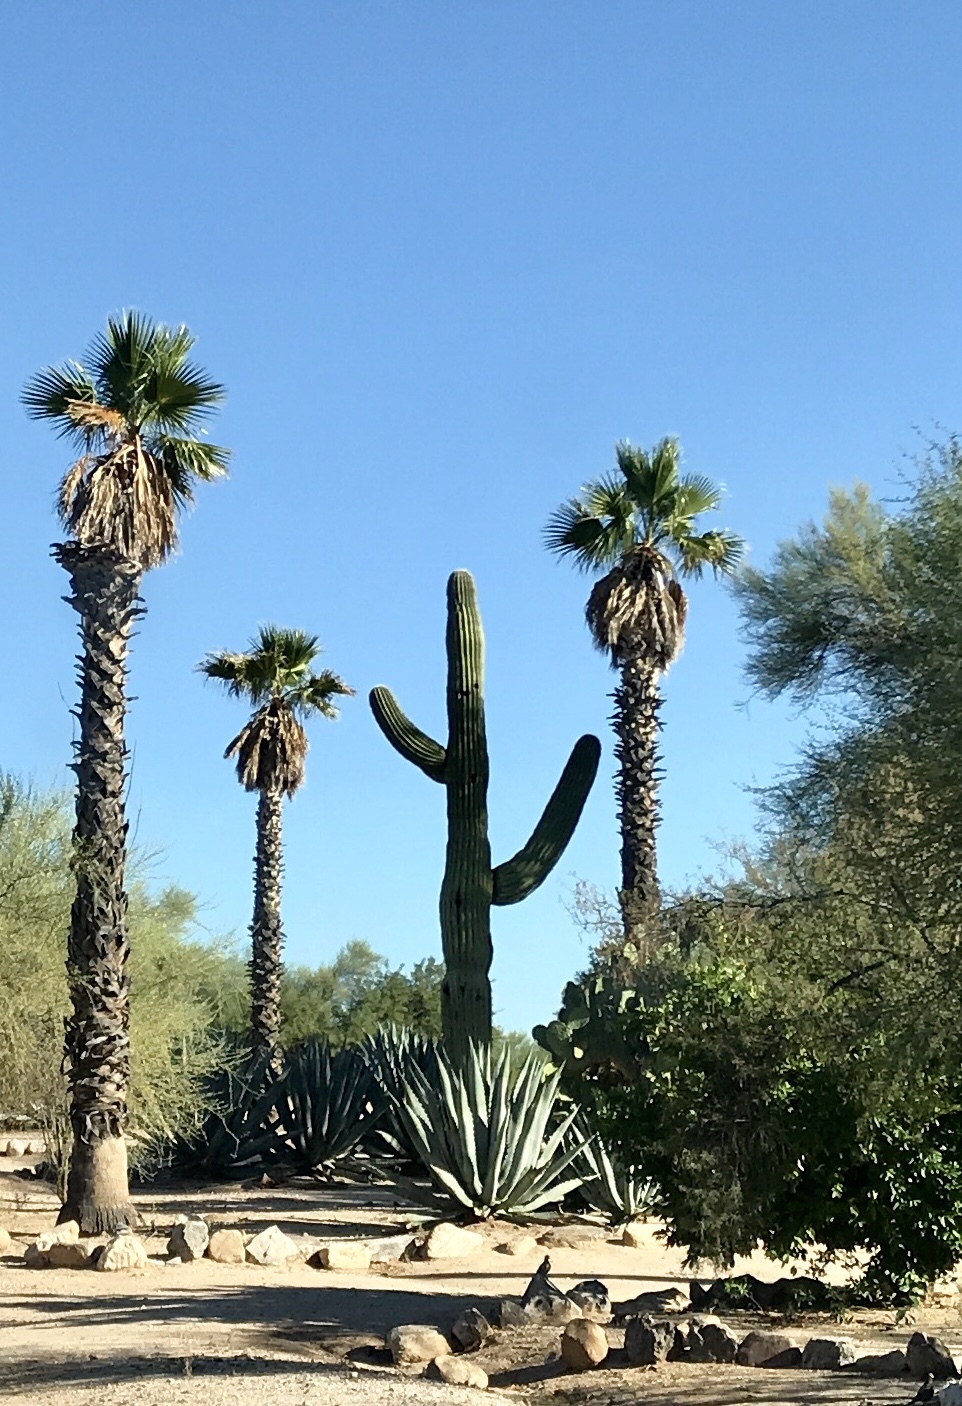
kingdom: Plantae
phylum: Tracheophyta
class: Magnoliopsida
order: Caryophyllales
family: Cactaceae
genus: Carnegiea
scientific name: Carnegiea gigantea
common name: Saguaro
